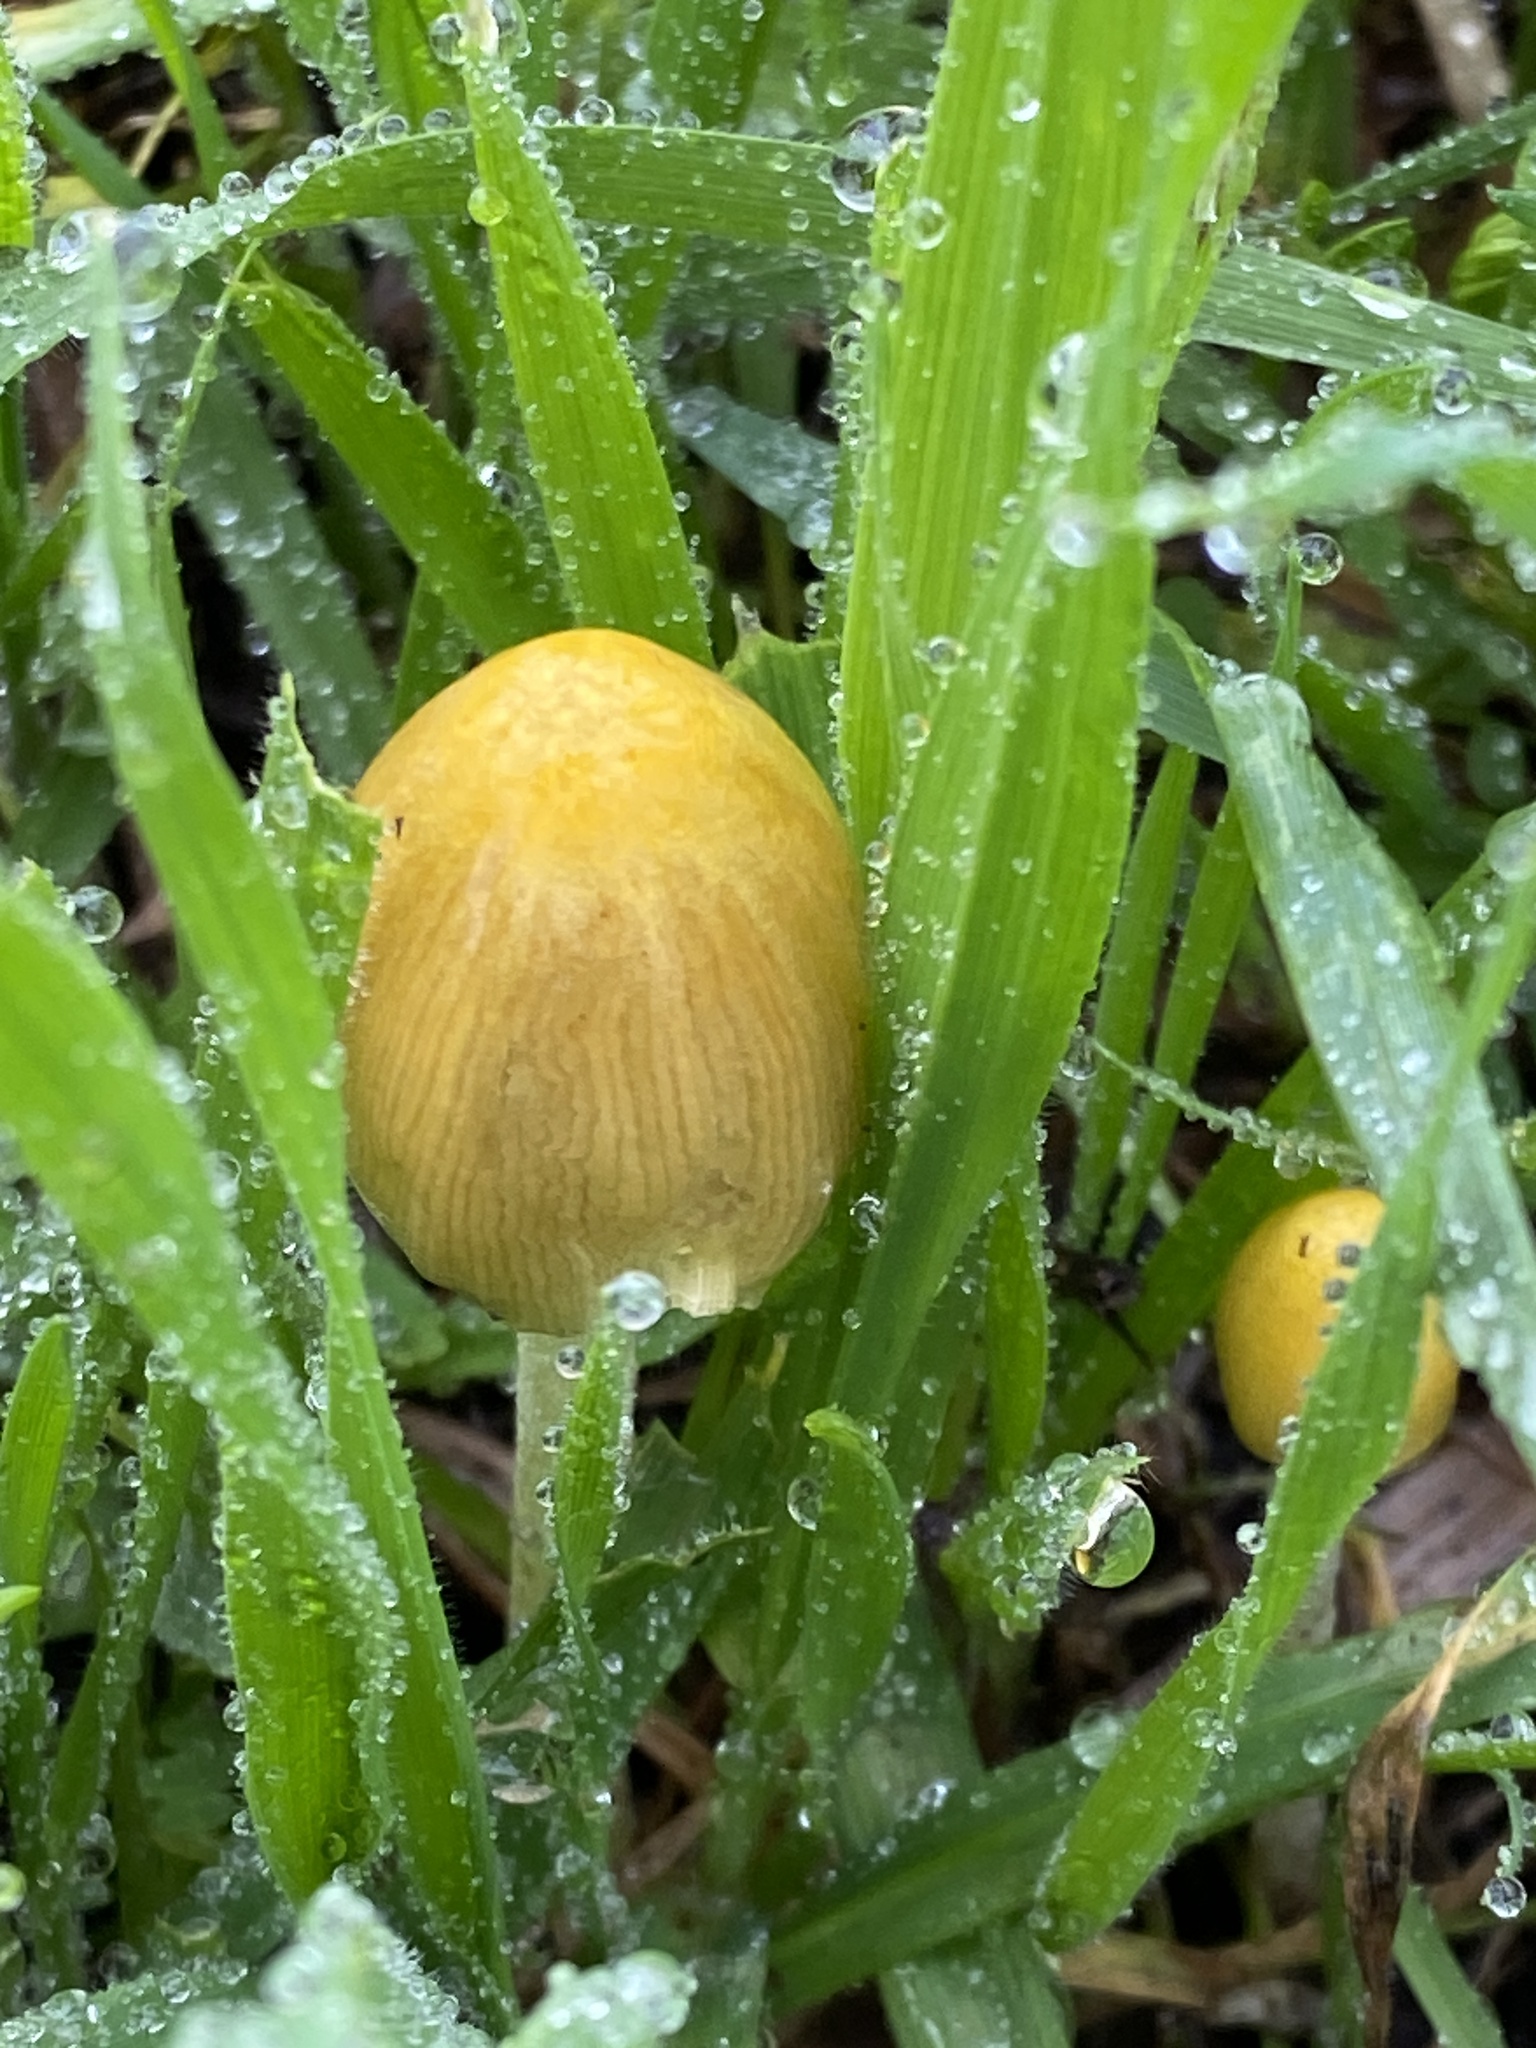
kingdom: Fungi
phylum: Basidiomycota
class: Agaricomycetes
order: Agaricales
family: Bolbitiaceae
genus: Bolbitius
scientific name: Bolbitius titubans
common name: Yellow fieldcap
